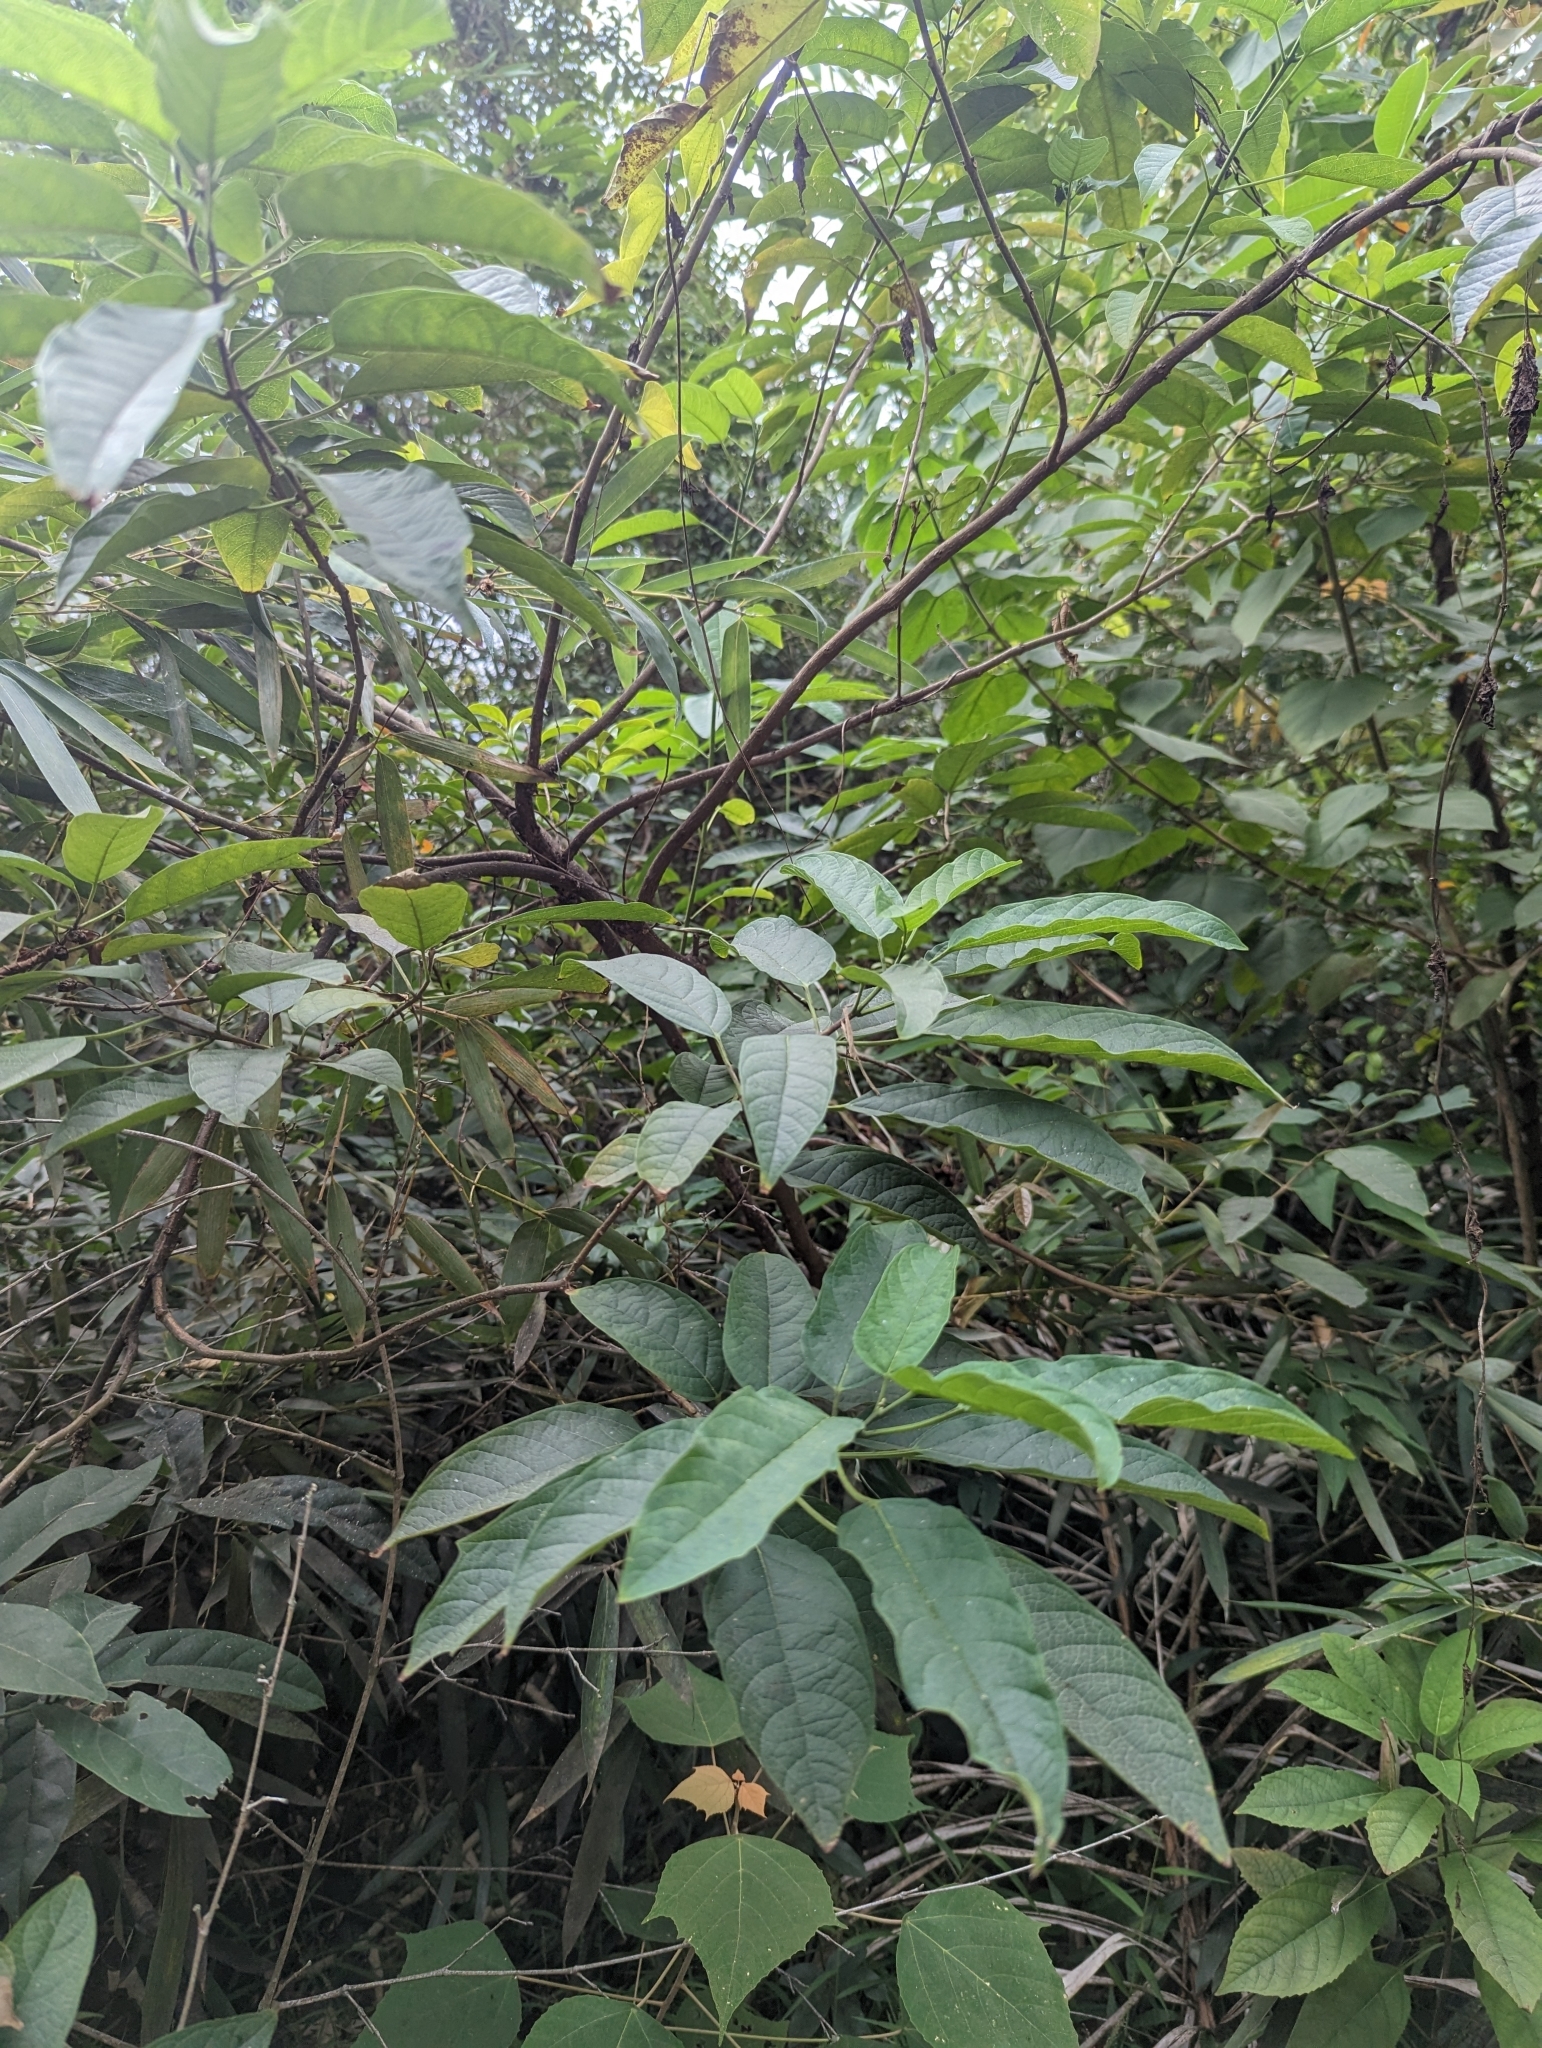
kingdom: Plantae
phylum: Tracheophyta
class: Magnoliopsida
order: Lamiales
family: Lamiaceae
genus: Clerodendrum
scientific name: Clerodendrum cyrtophyllum
